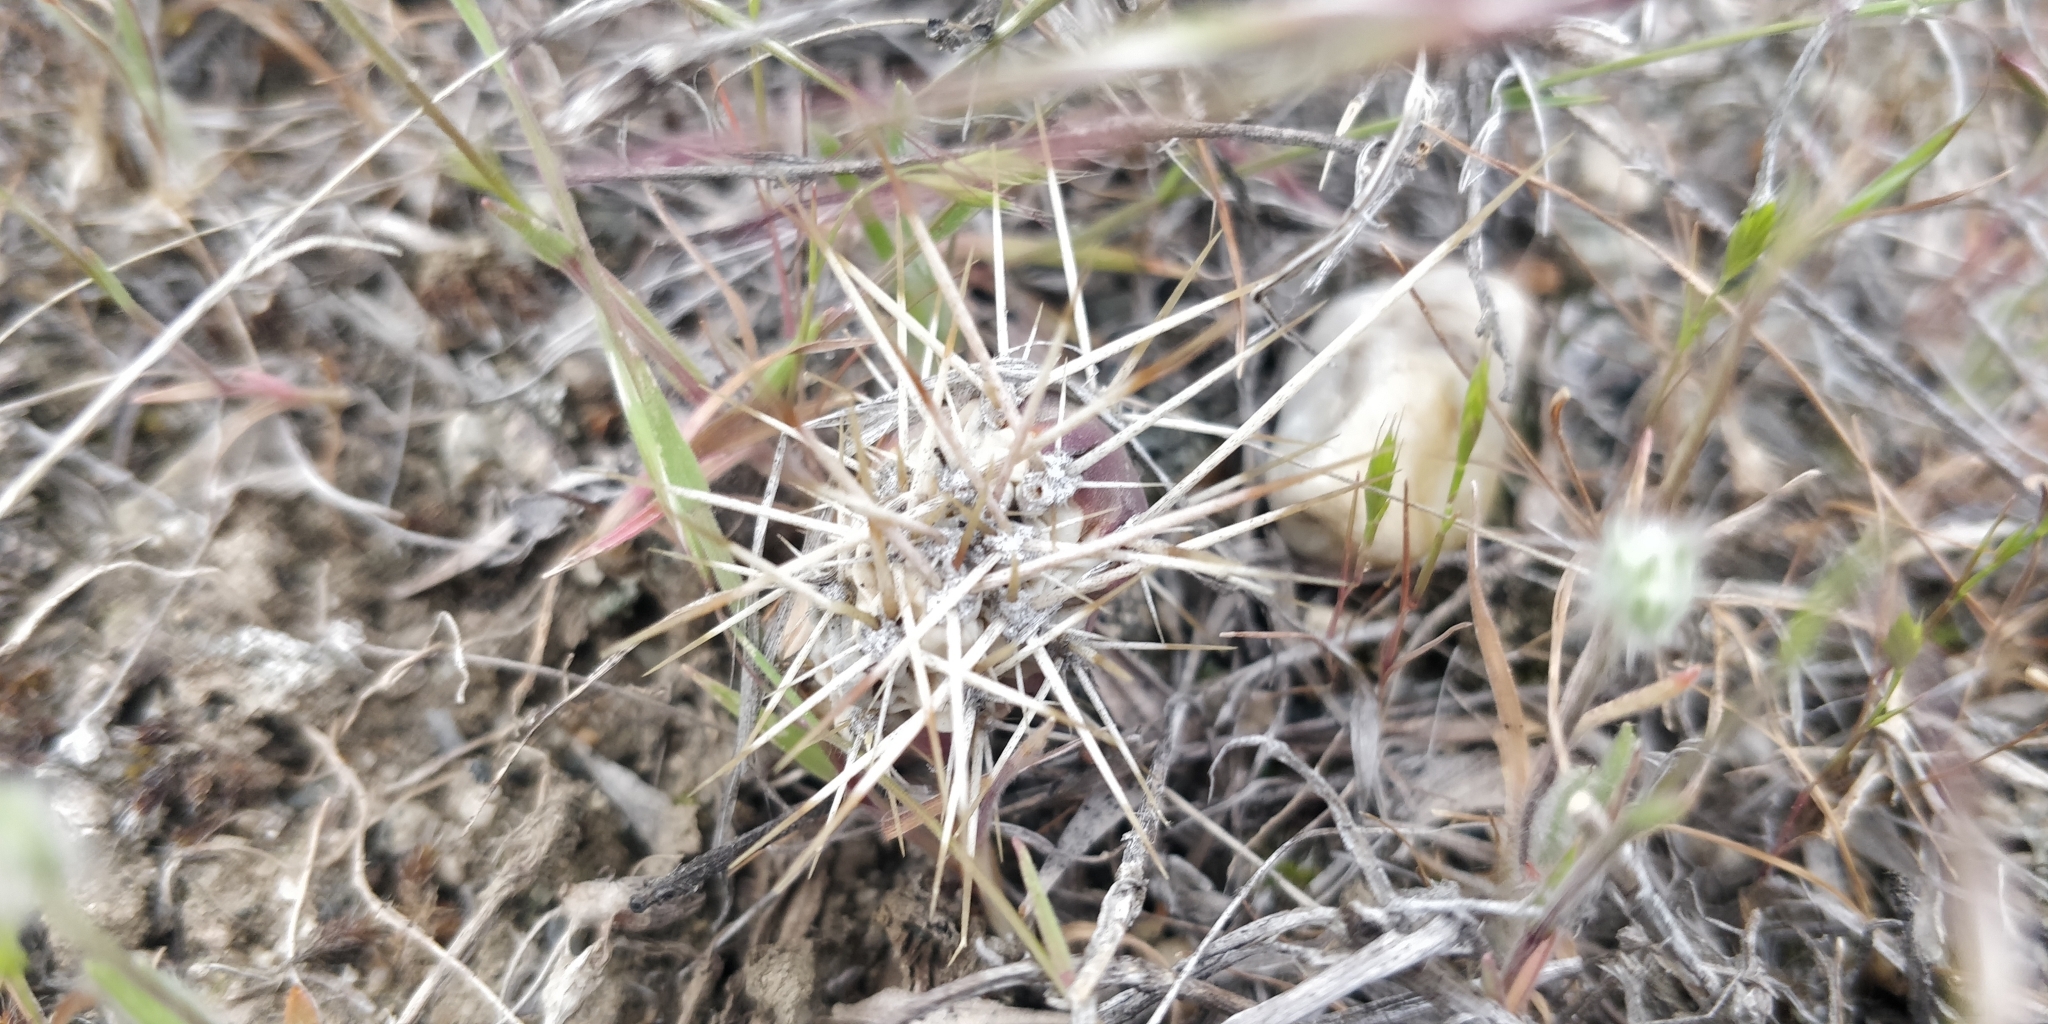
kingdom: Plantae
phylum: Tracheophyta
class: Magnoliopsida
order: Caryophyllales
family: Cactaceae
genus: Opuntia
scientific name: Opuntia fragilis
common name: Brittle cactus
